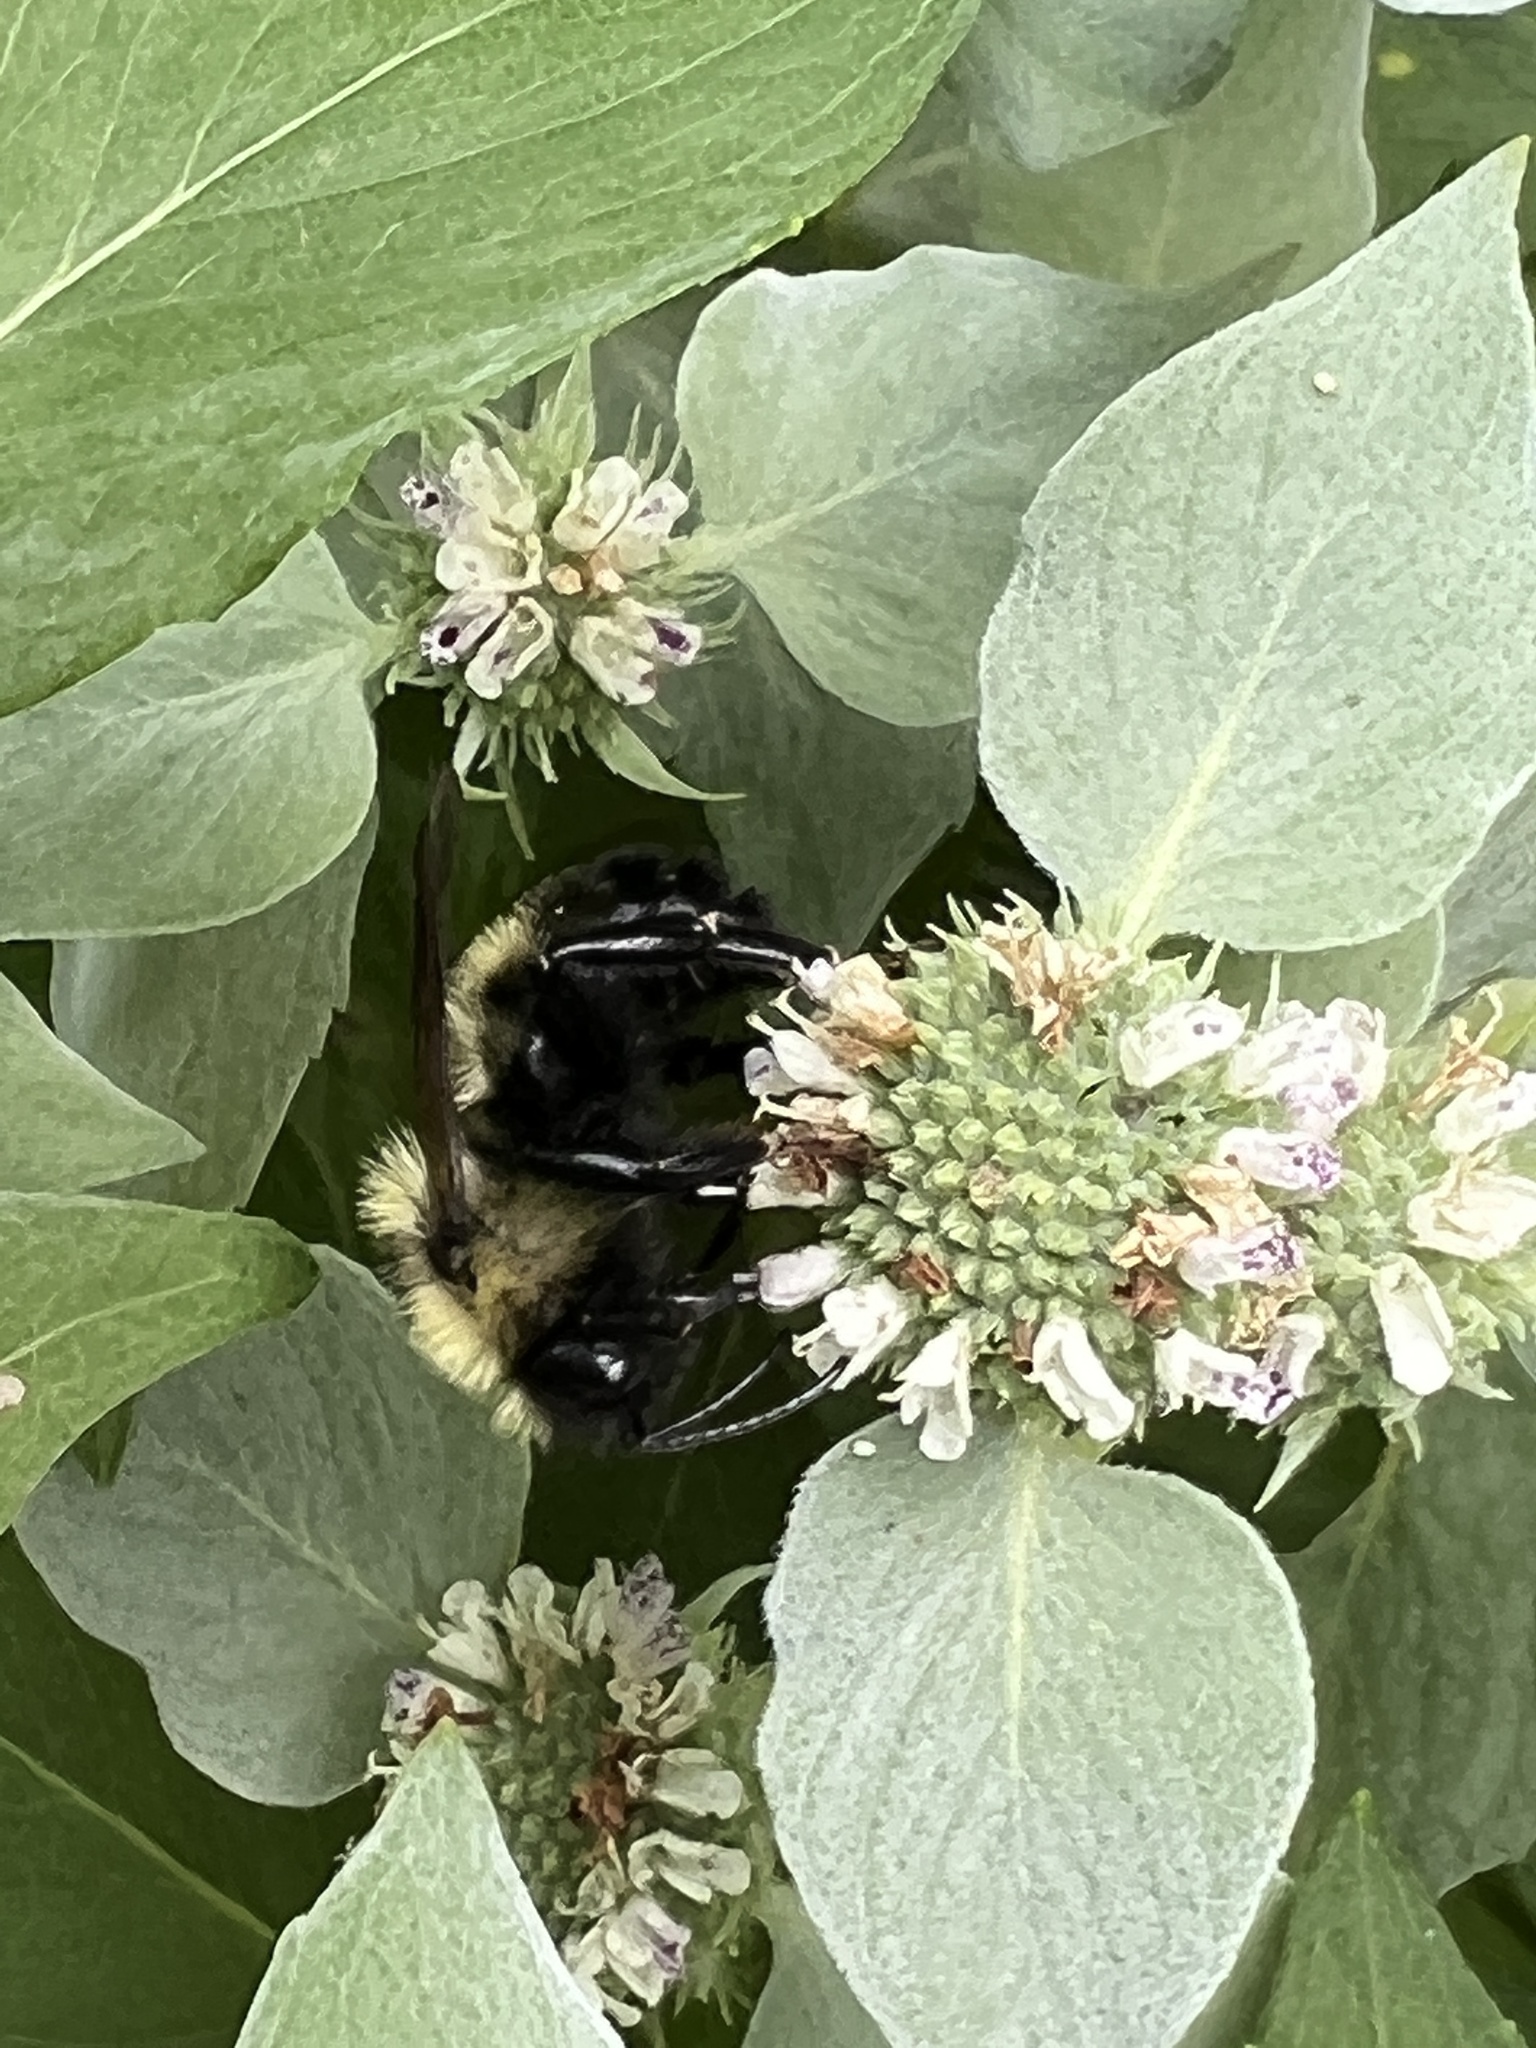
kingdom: Animalia
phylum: Arthropoda
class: Insecta
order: Hymenoptera
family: Apidae
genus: Bombus
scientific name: Bombus citrinus
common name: Lemon cuckoo bumble bee
